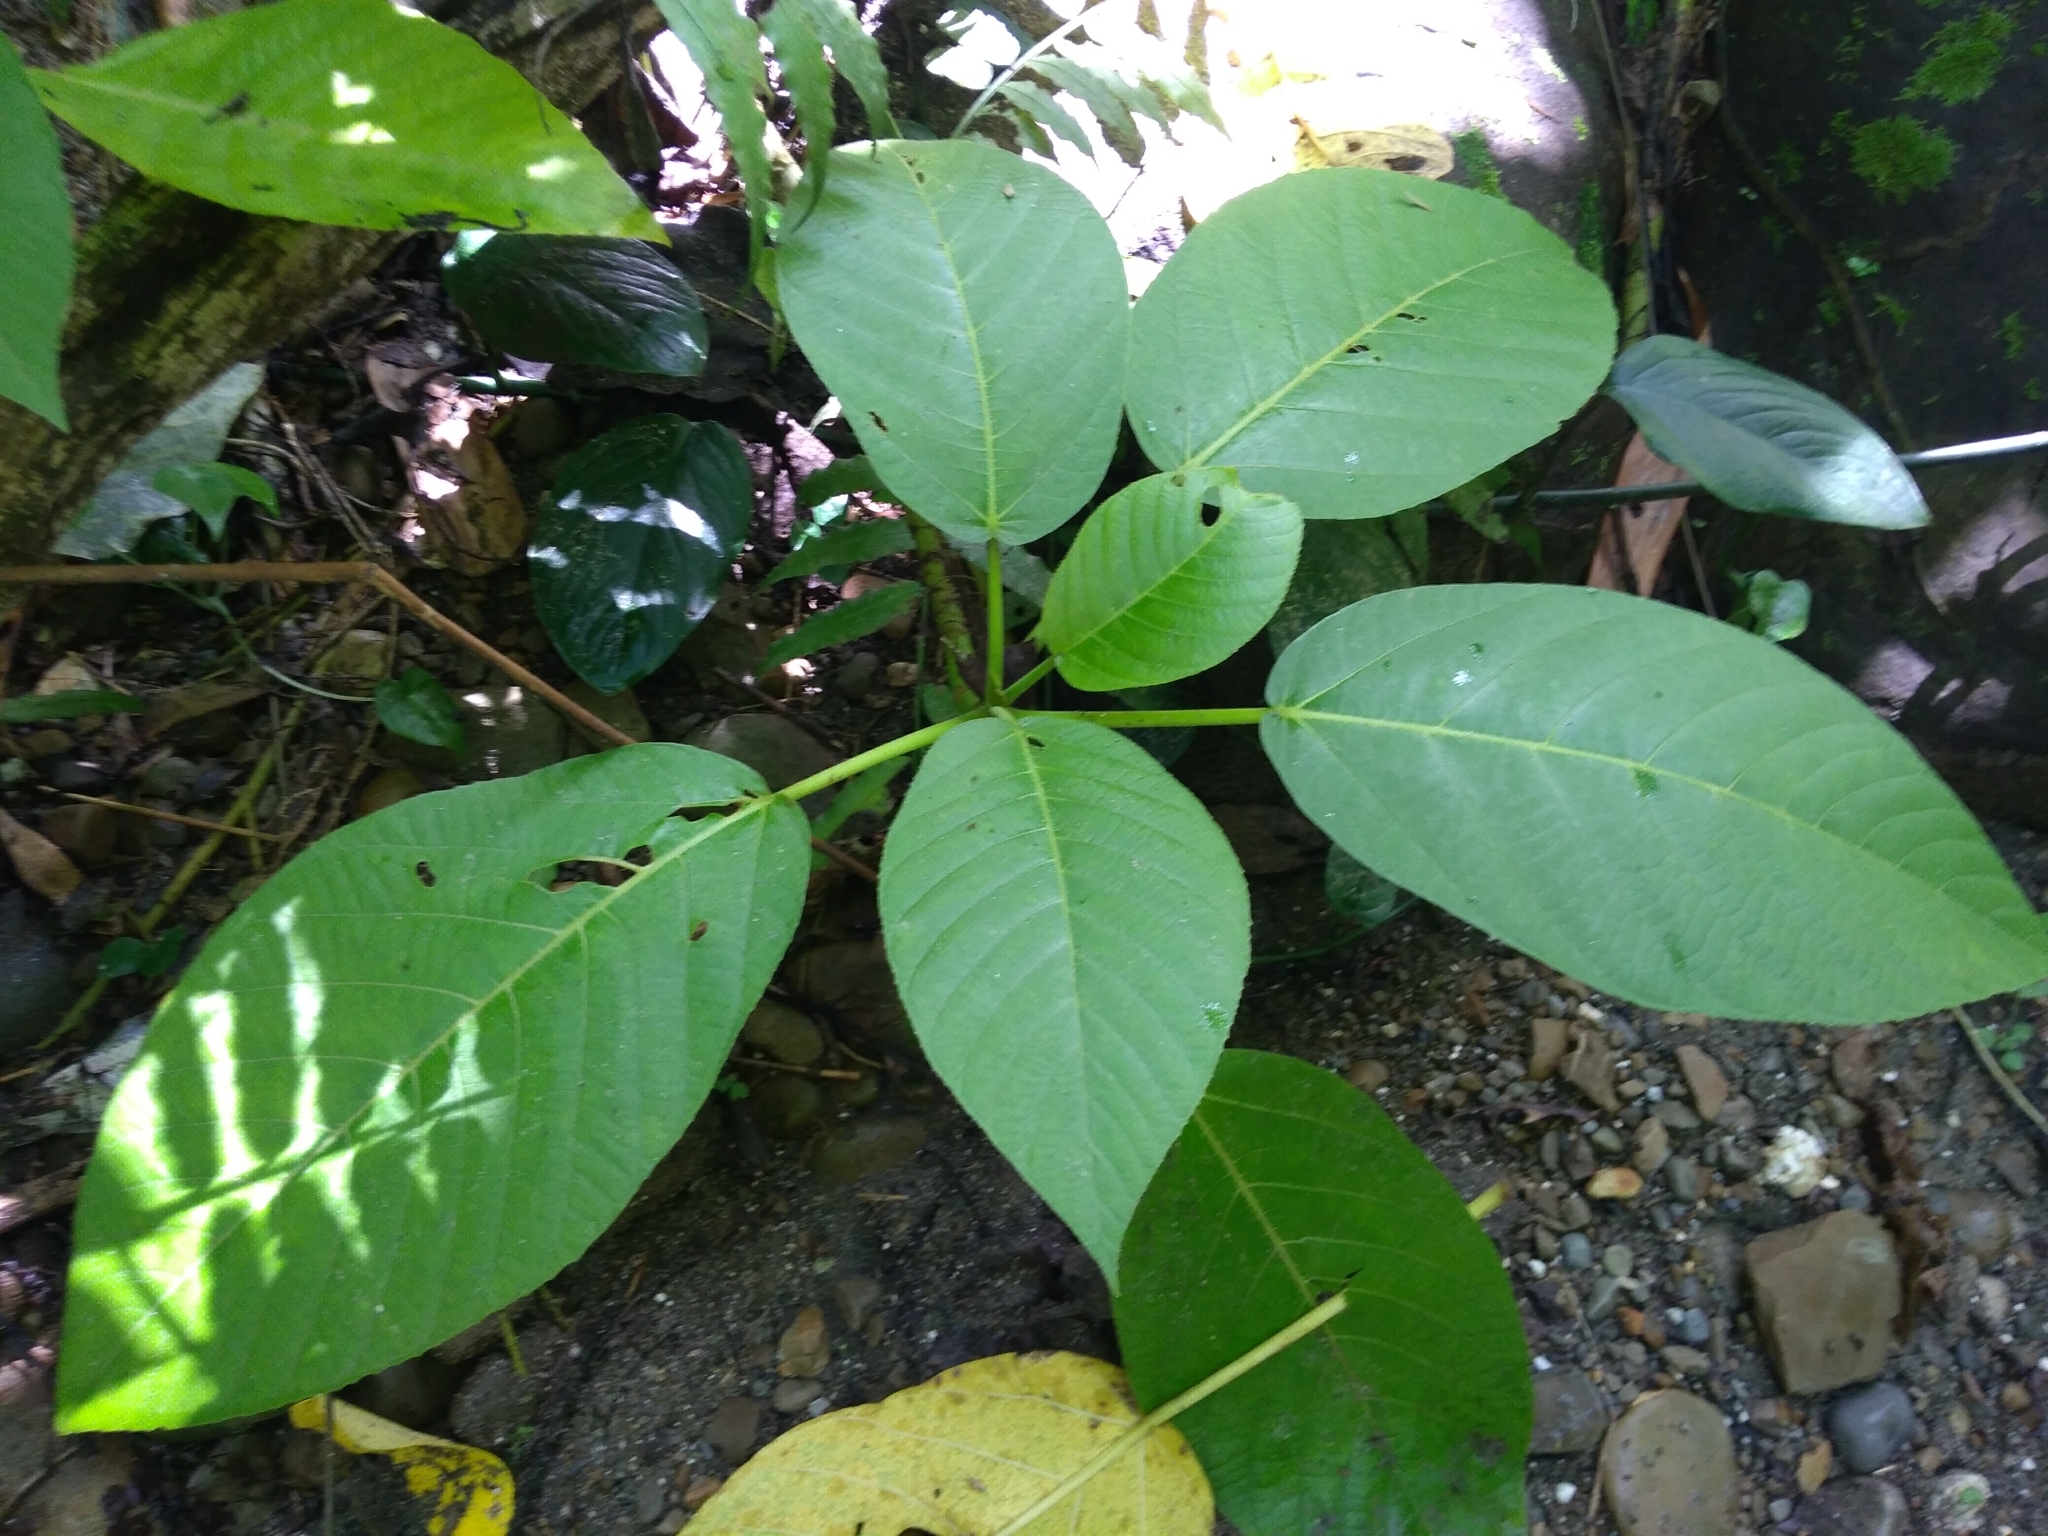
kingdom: Plantae
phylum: Tracheophyta
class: Magnoliopsida
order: Rosales
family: Urticaceae
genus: Dendrocnide
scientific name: Dendrocnide meyeniana
